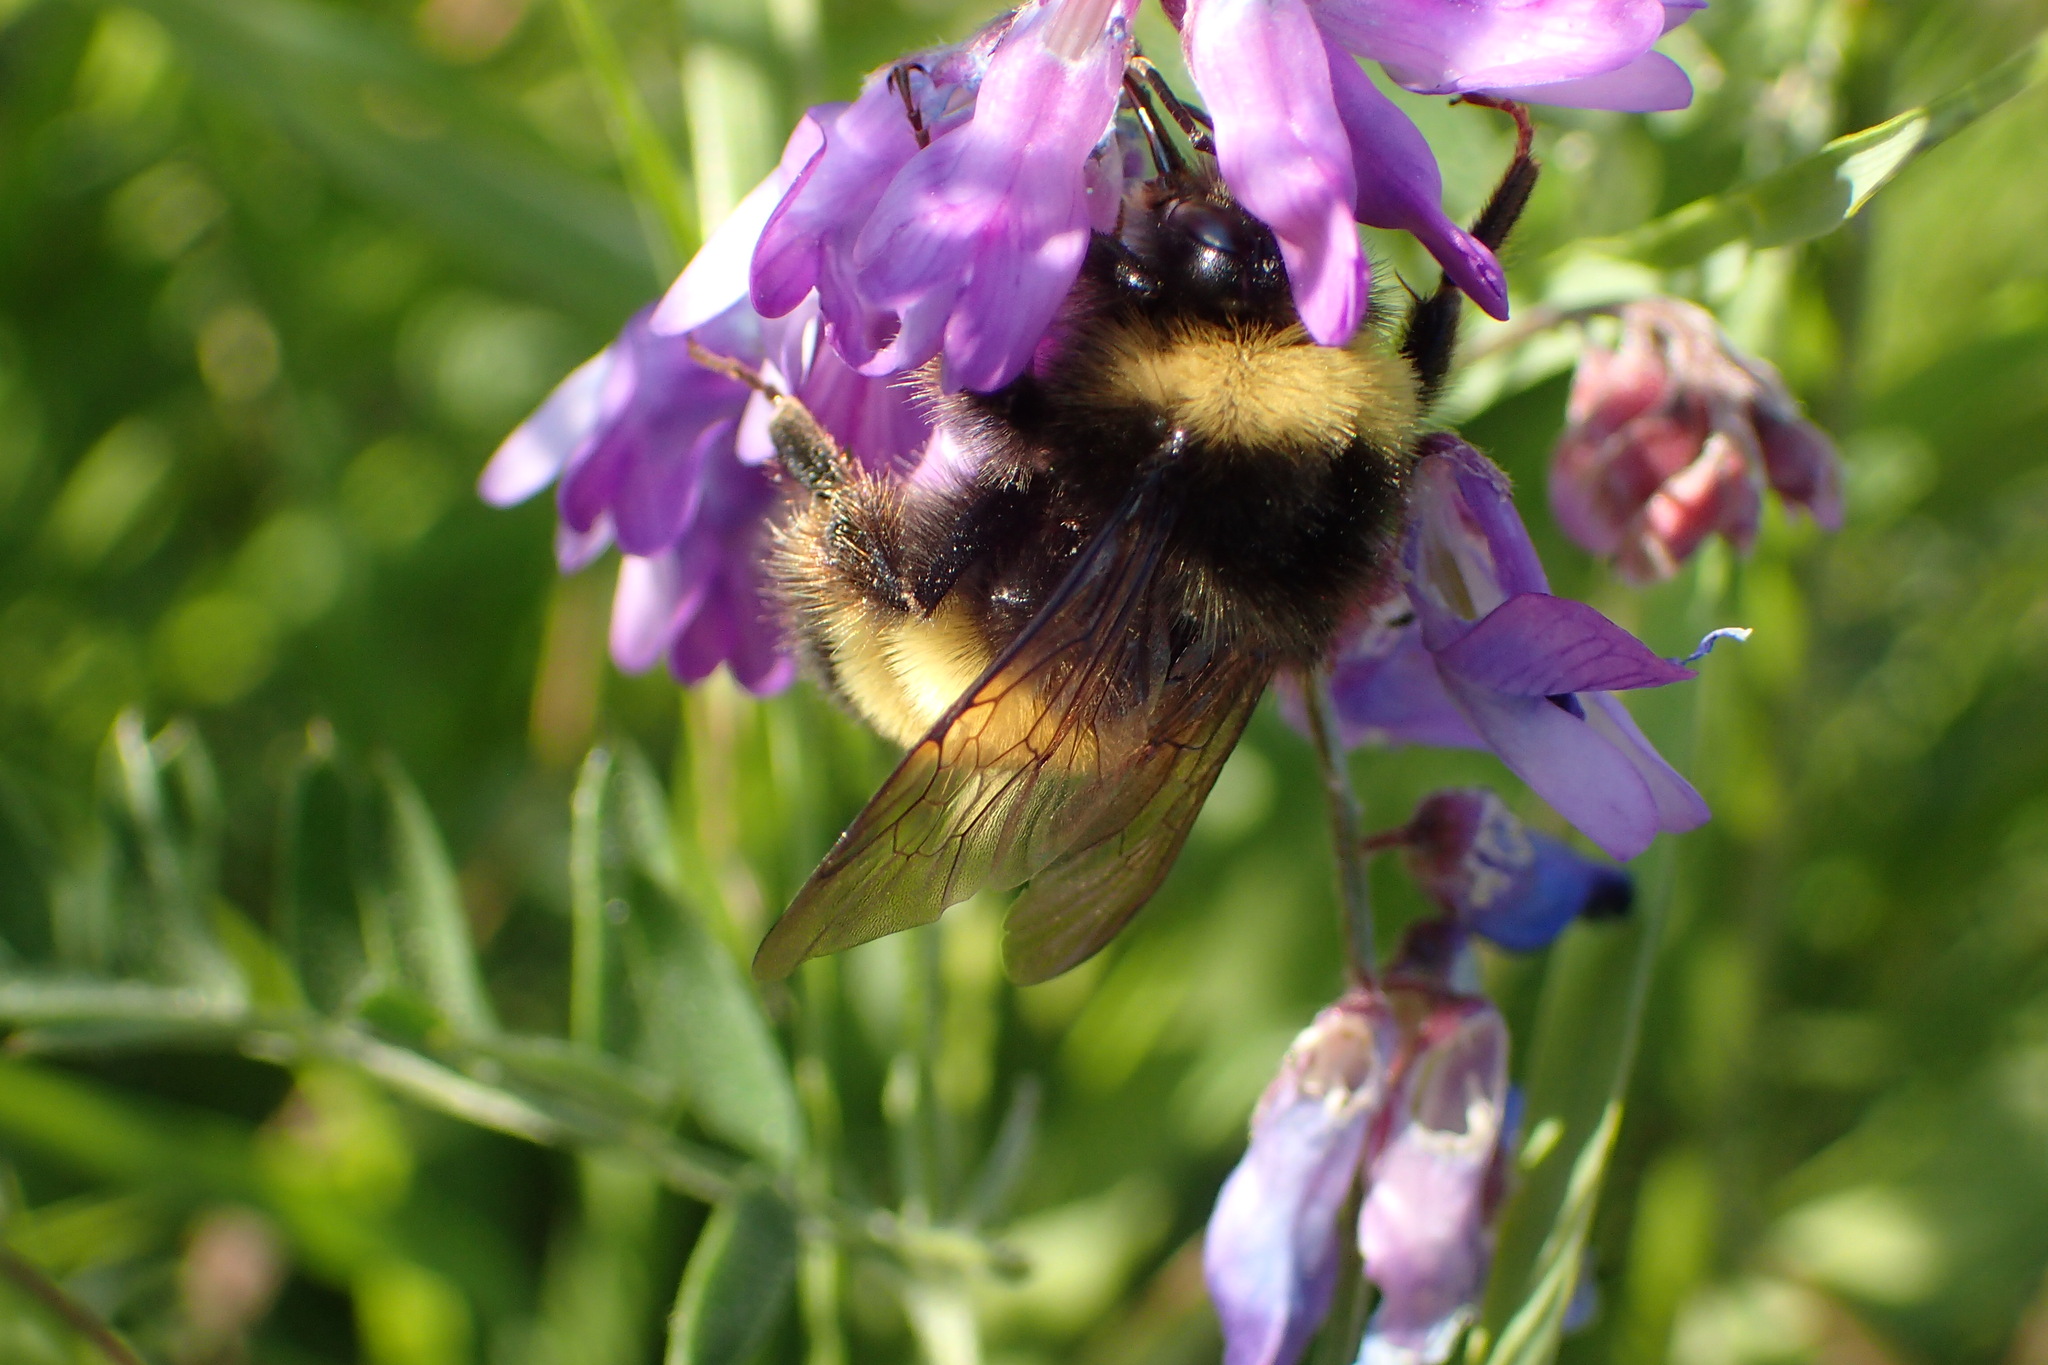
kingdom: Animalia
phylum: Arthropoda
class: Insecta
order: Hymenoptera
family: Apidae
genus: Bombus
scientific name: Bombus terricola
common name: Yellow-banded bumble bee
